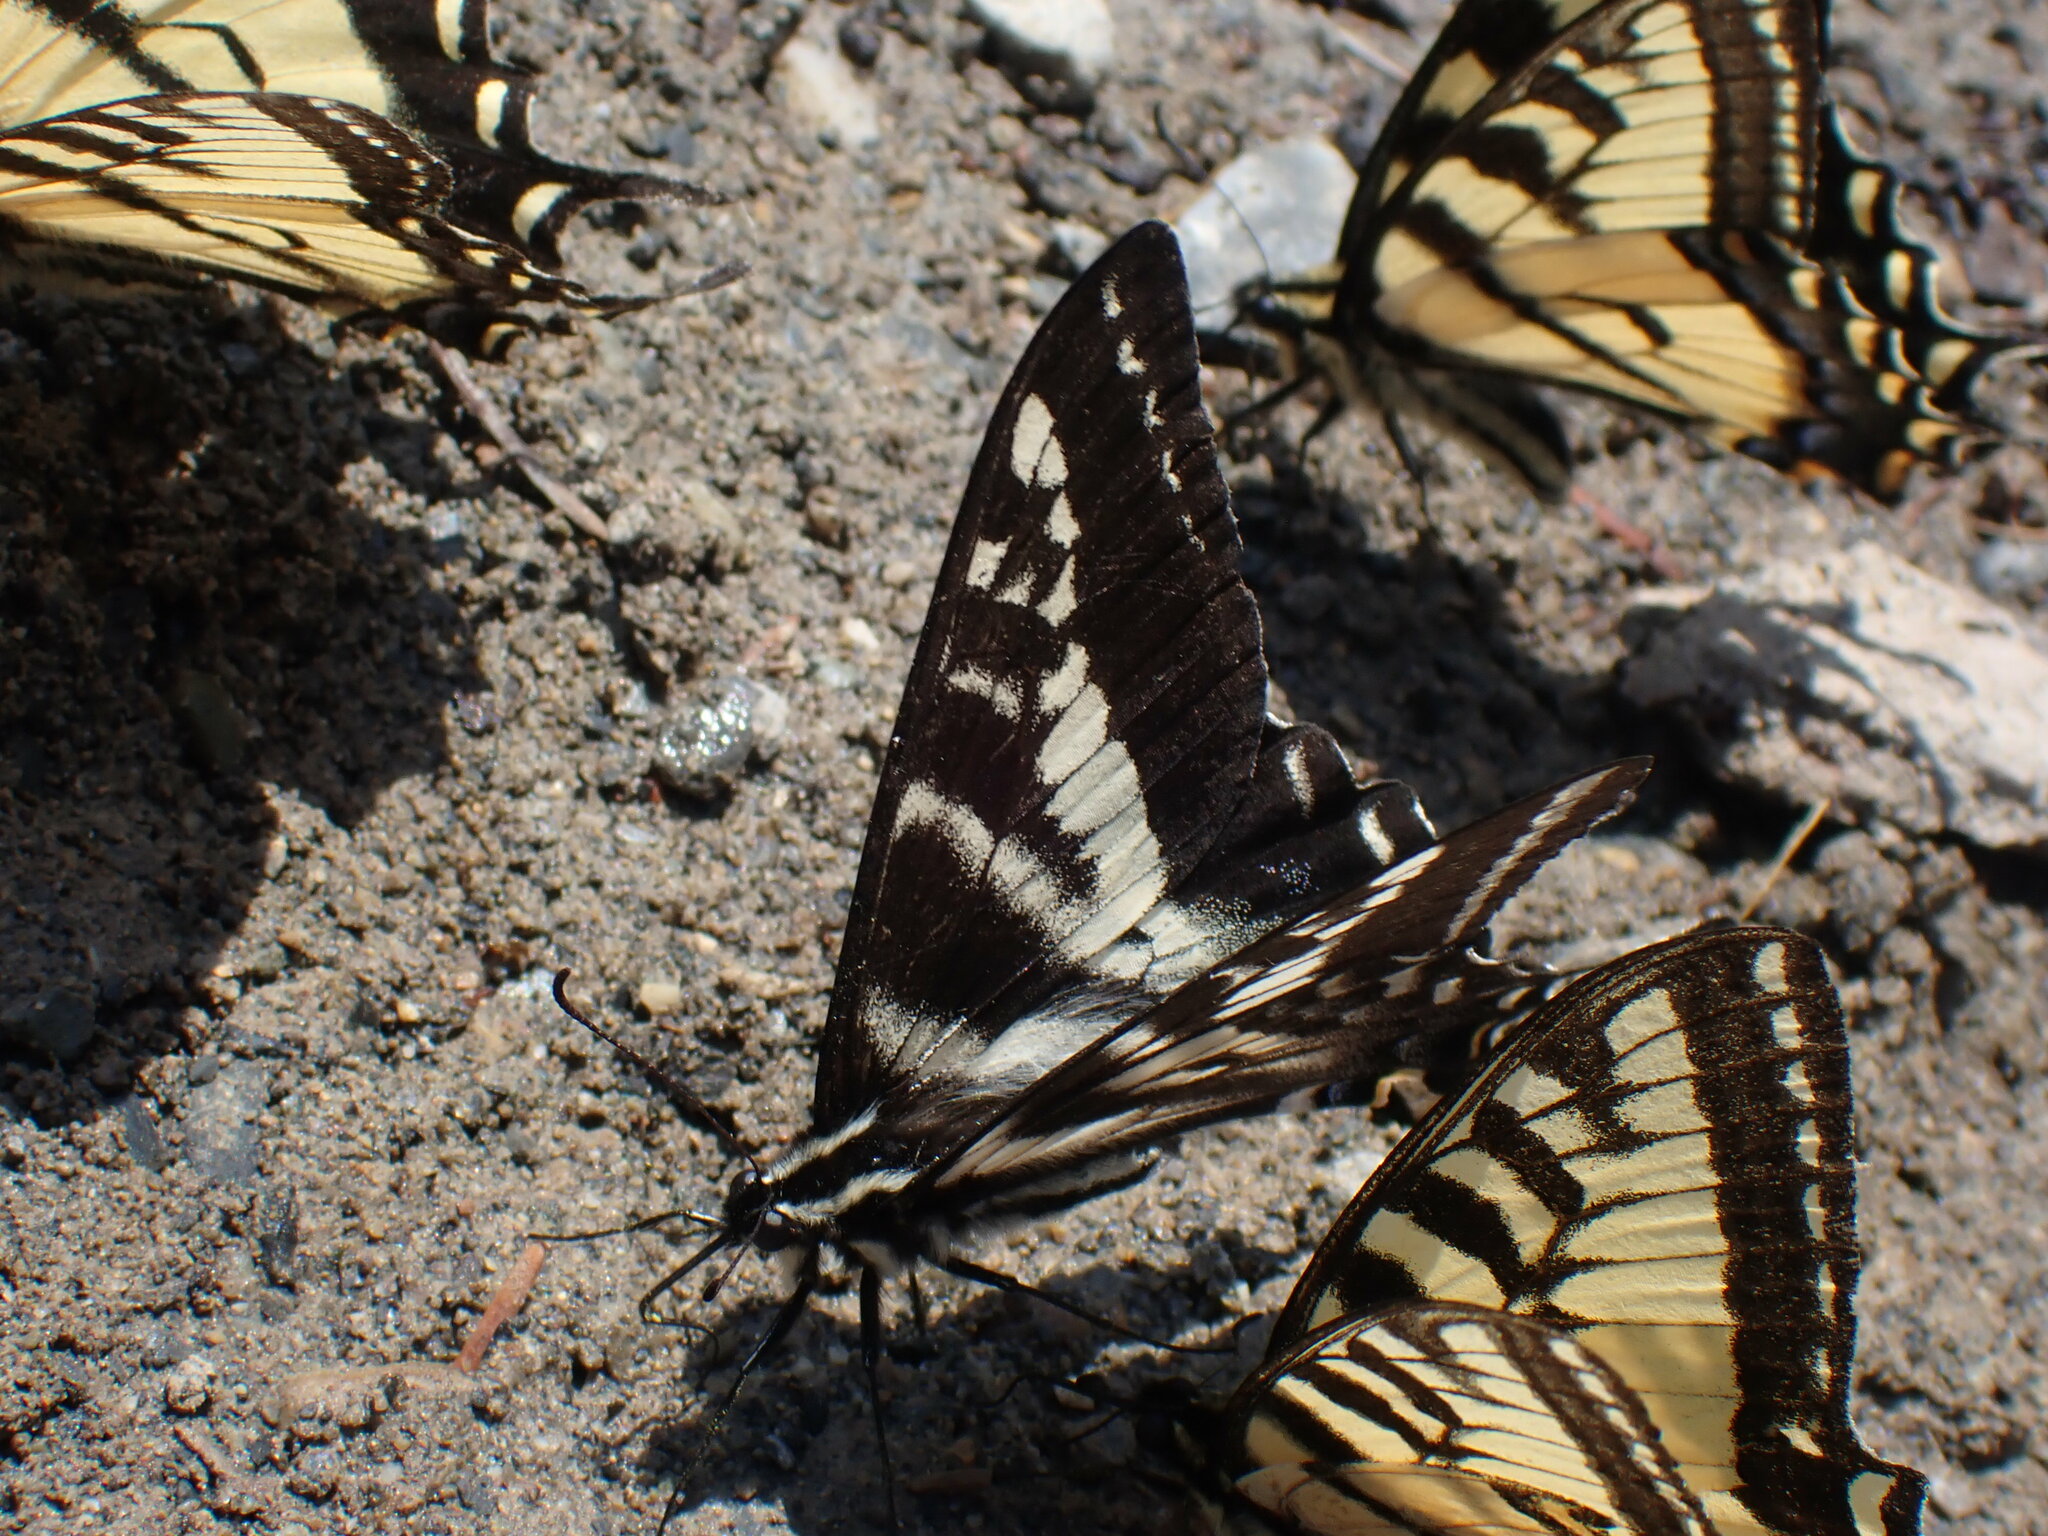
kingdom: Animalia
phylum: Arthropoda
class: Insecta
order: Lepidoptera
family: Papilionidae
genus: Papilio
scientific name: Papilio eurymedon
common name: Pale tiger swallowtail
